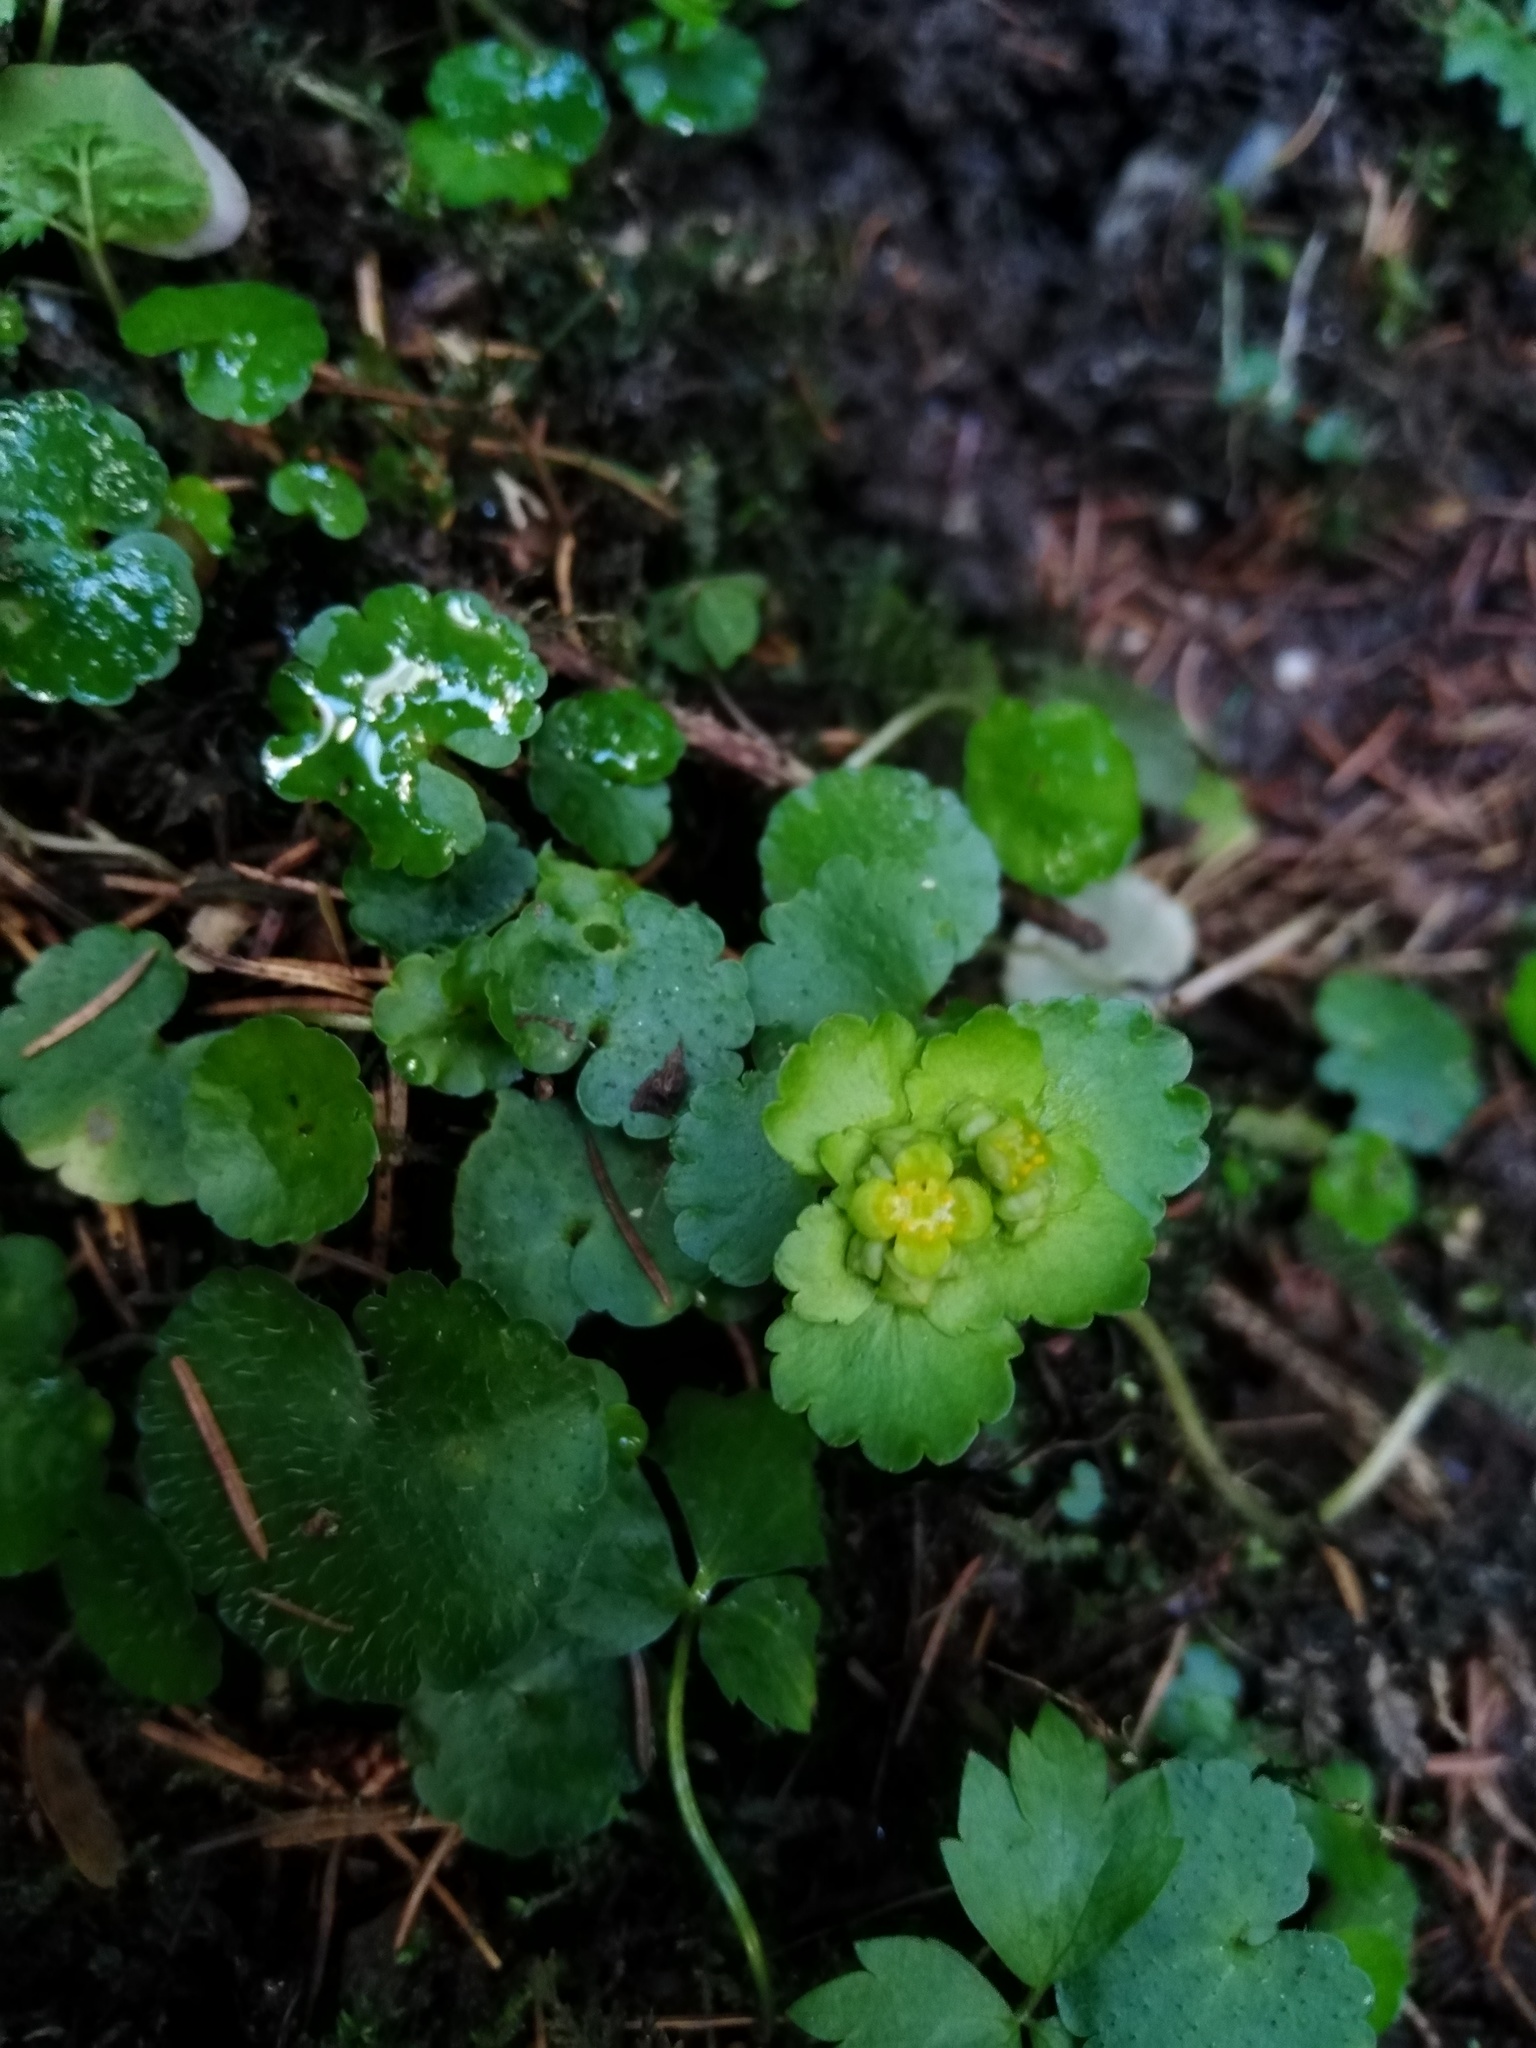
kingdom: Plantae
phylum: Tracheophyta
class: Magnoliopsida
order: Saxifragales
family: Saxifragaceae
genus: Chrysosplenium
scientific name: Chrysosplenium alternifolium
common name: Alternate-leaved golden-saxifrage
